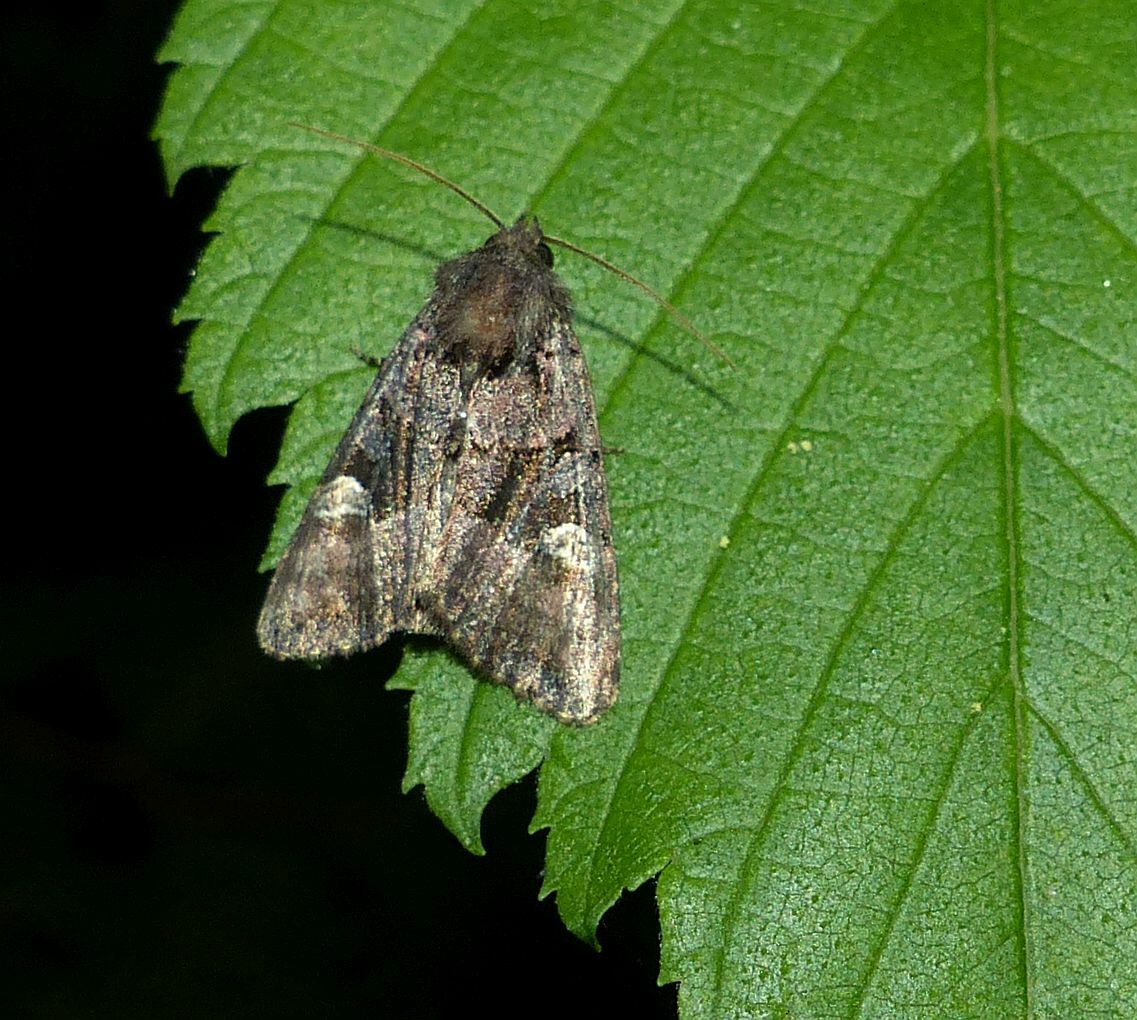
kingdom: Animalia
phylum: Arthropoda
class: Insecta
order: Lepidoptera
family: Noctuidae
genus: Euplexia
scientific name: Euplexia benesimilis
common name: American angle shades
